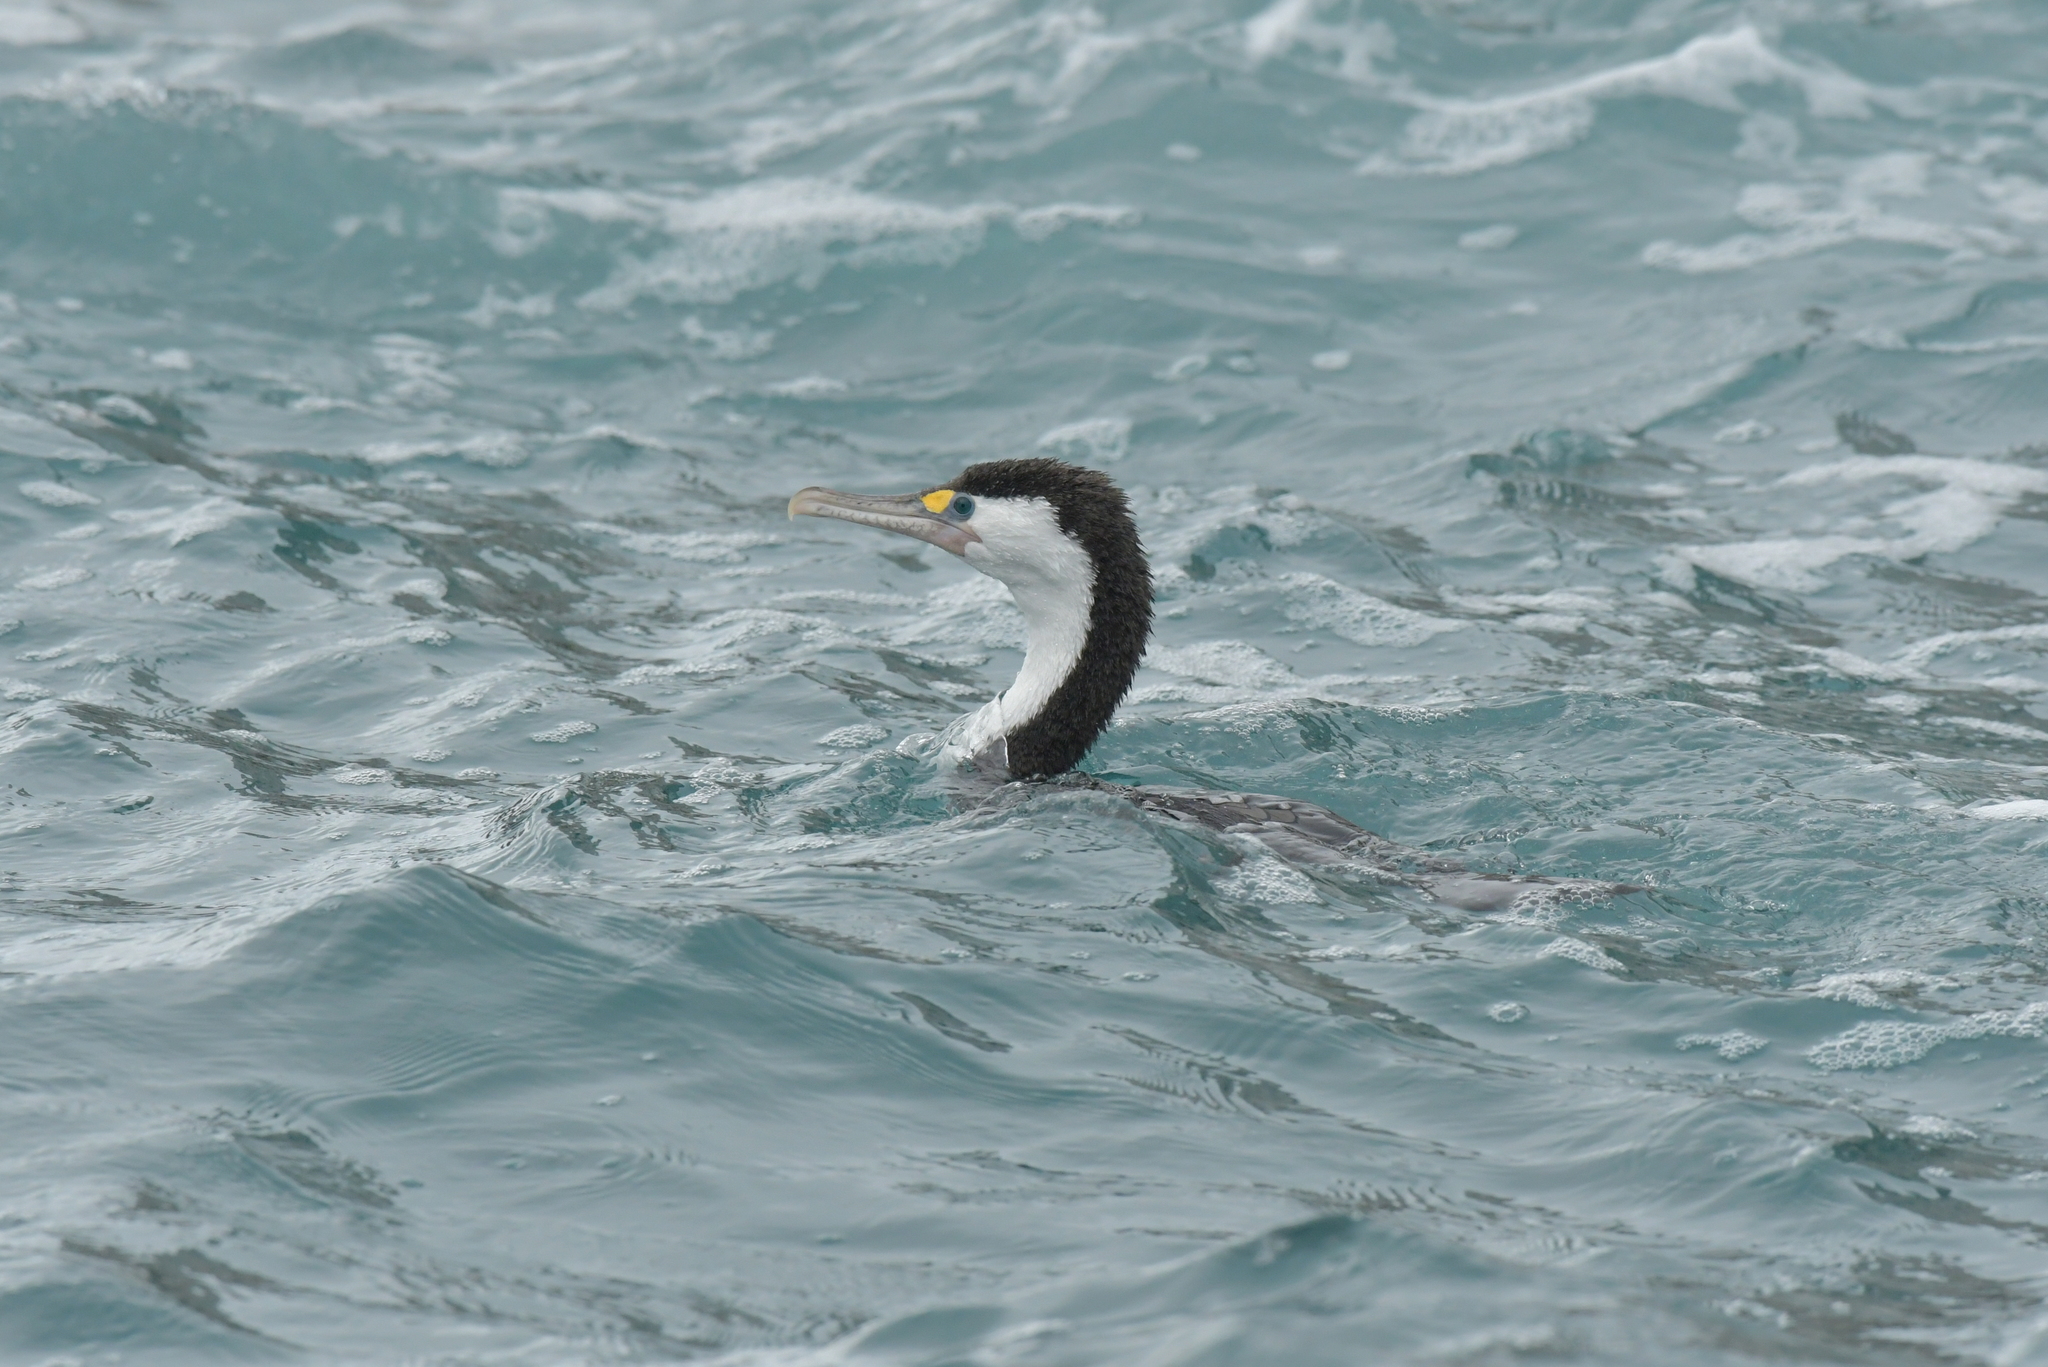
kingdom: Animalia
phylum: Chordata
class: Aves
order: Suliformes
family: Phalacrocoracidae
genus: Phalacrocorax
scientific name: Phalacrocorax varius
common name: Pied cormorant
